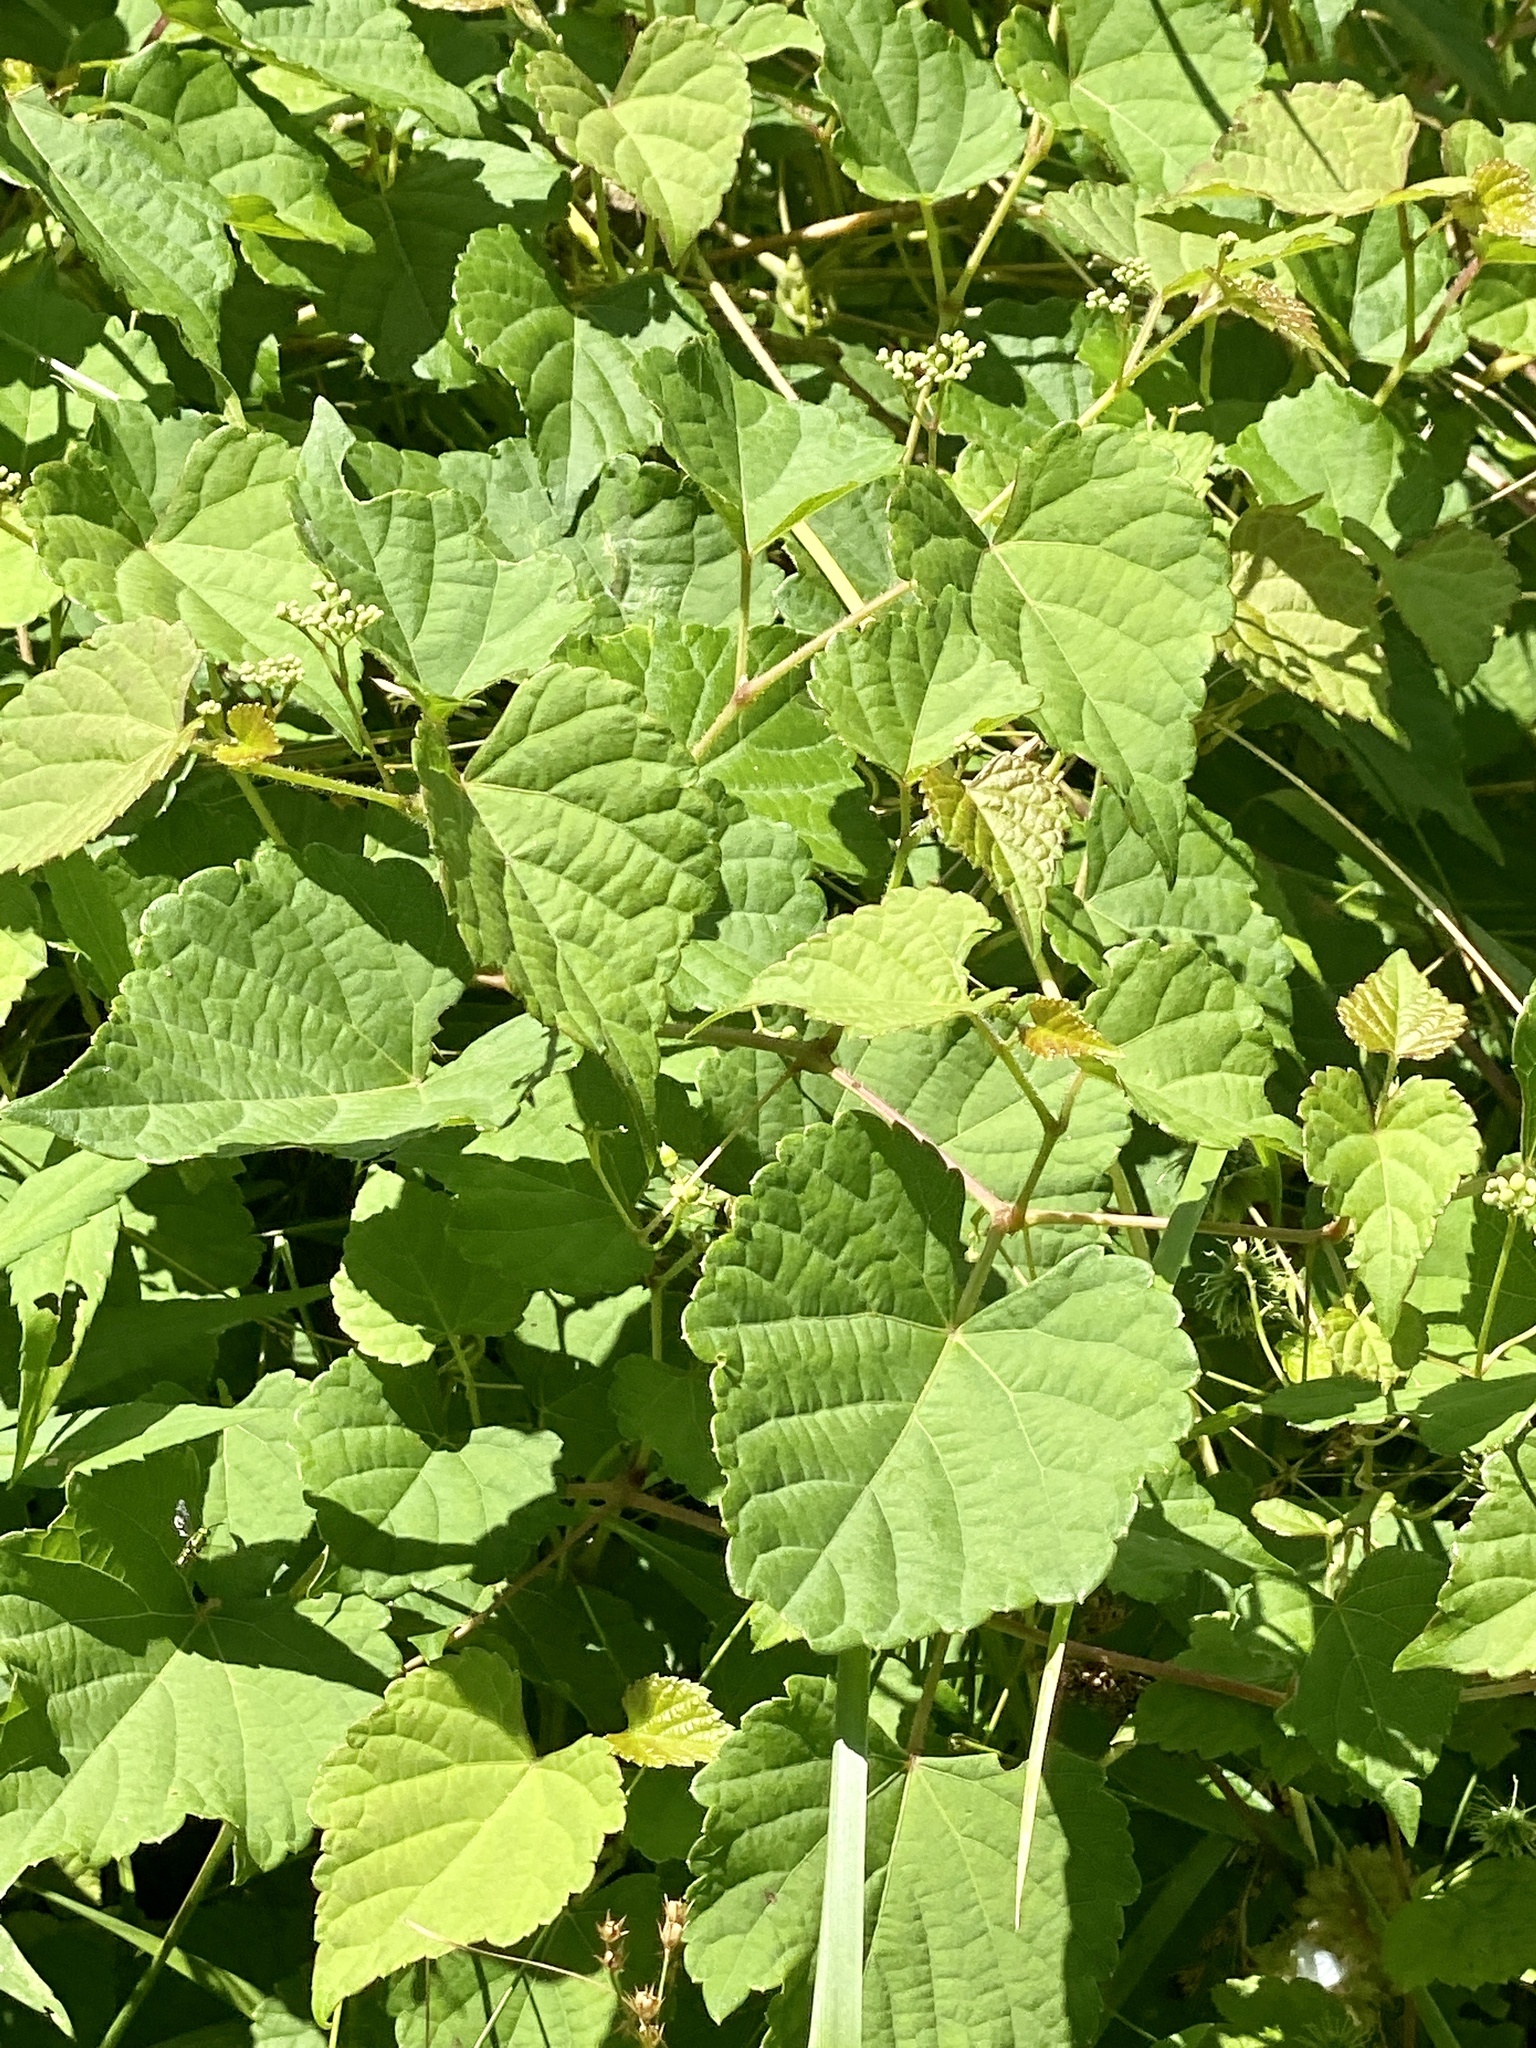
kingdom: Plantae
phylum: Tracheophyta
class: Magnoliopsida
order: Vitales
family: Vitaceae
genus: Ampelopsis
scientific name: Ampelopsis glandulosa
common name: Amur peppervine
